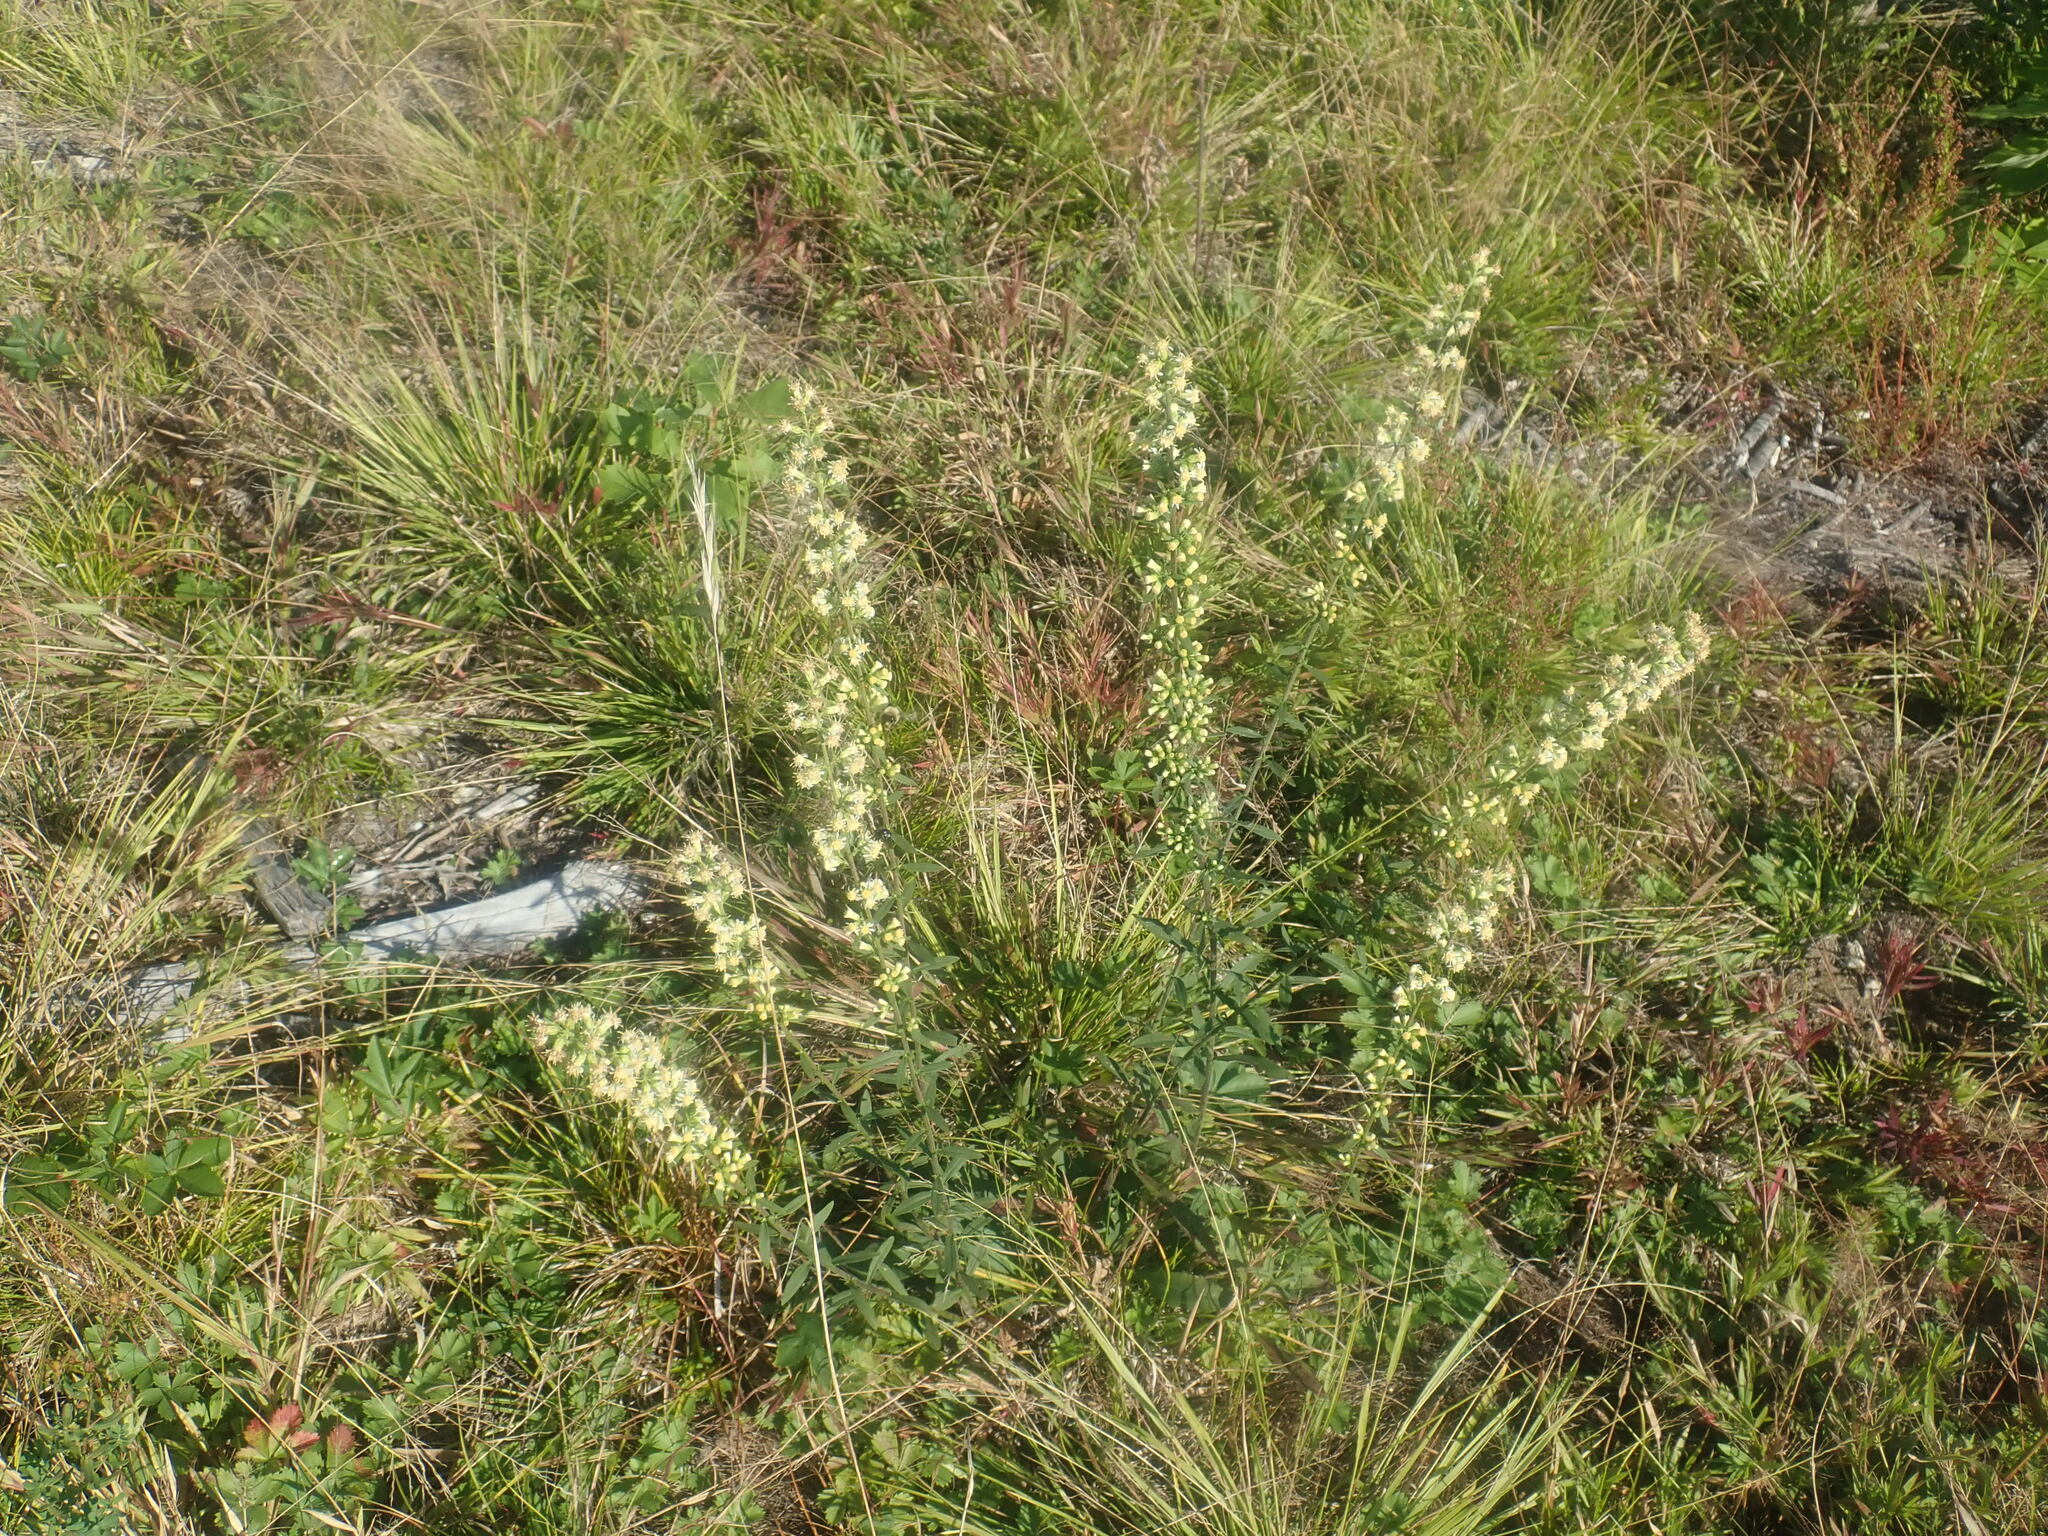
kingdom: Plantae
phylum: Tracheophyta
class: Magnoliopsida
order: Asterales
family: Asteraceae
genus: Solidago
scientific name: Solidago bicolor
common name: Silverrod
